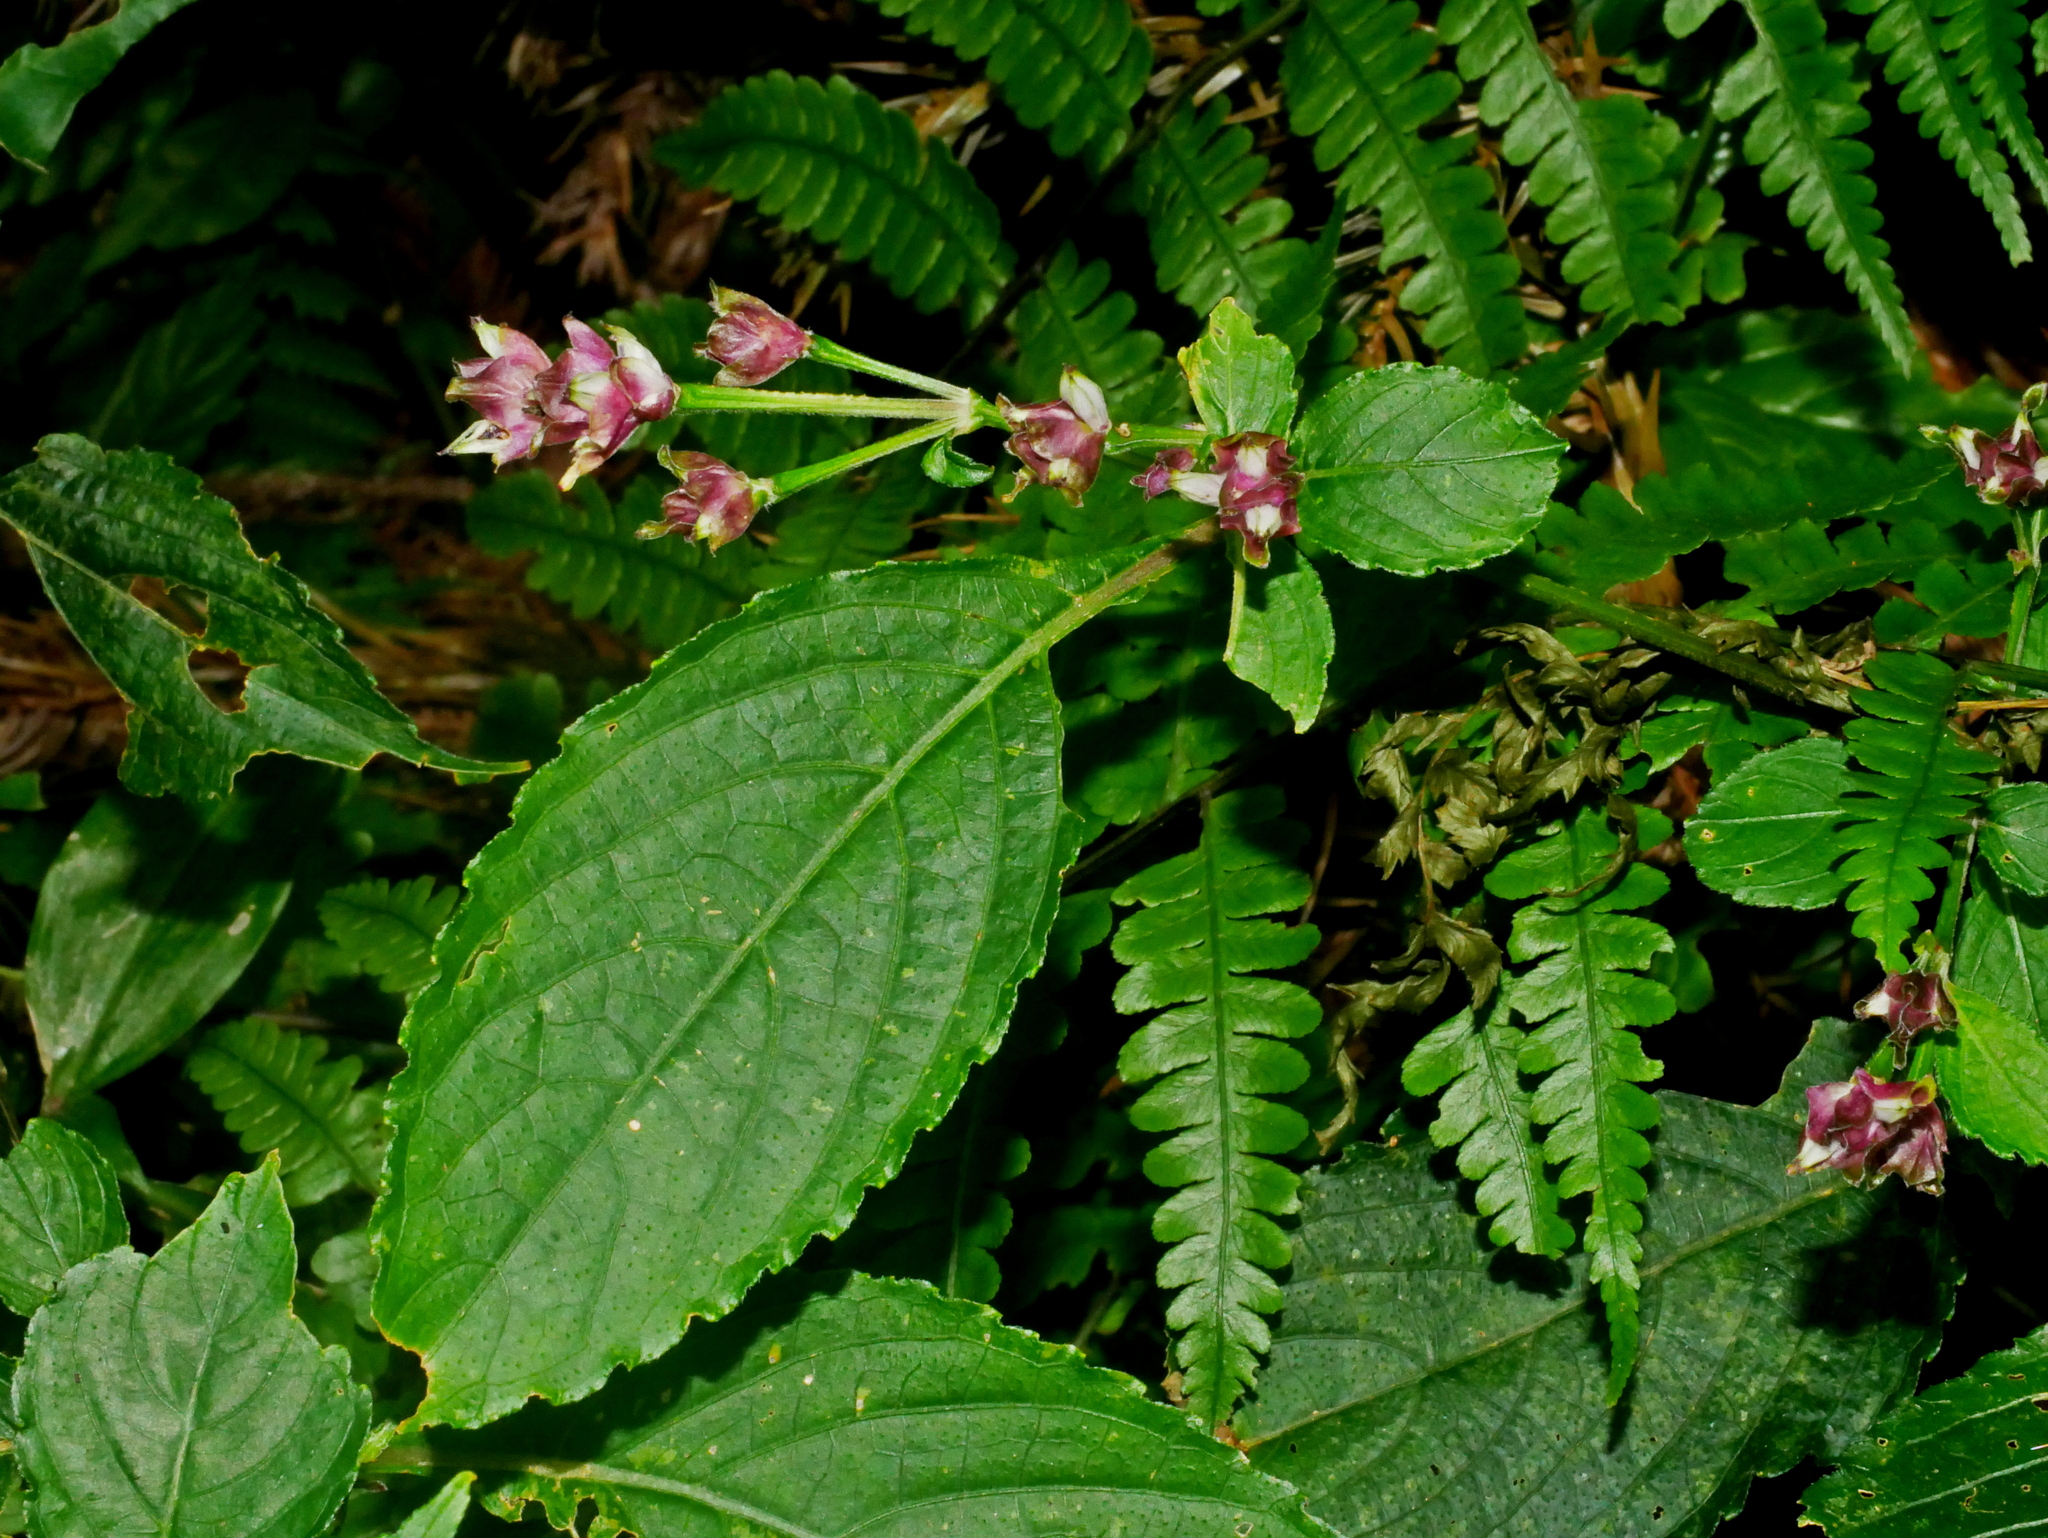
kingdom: Plantae
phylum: Tracheophyta
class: Magnoliopsida
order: Lamiales
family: Acanthaceae
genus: Strobilanthes
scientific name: Strobilanthes formosana
